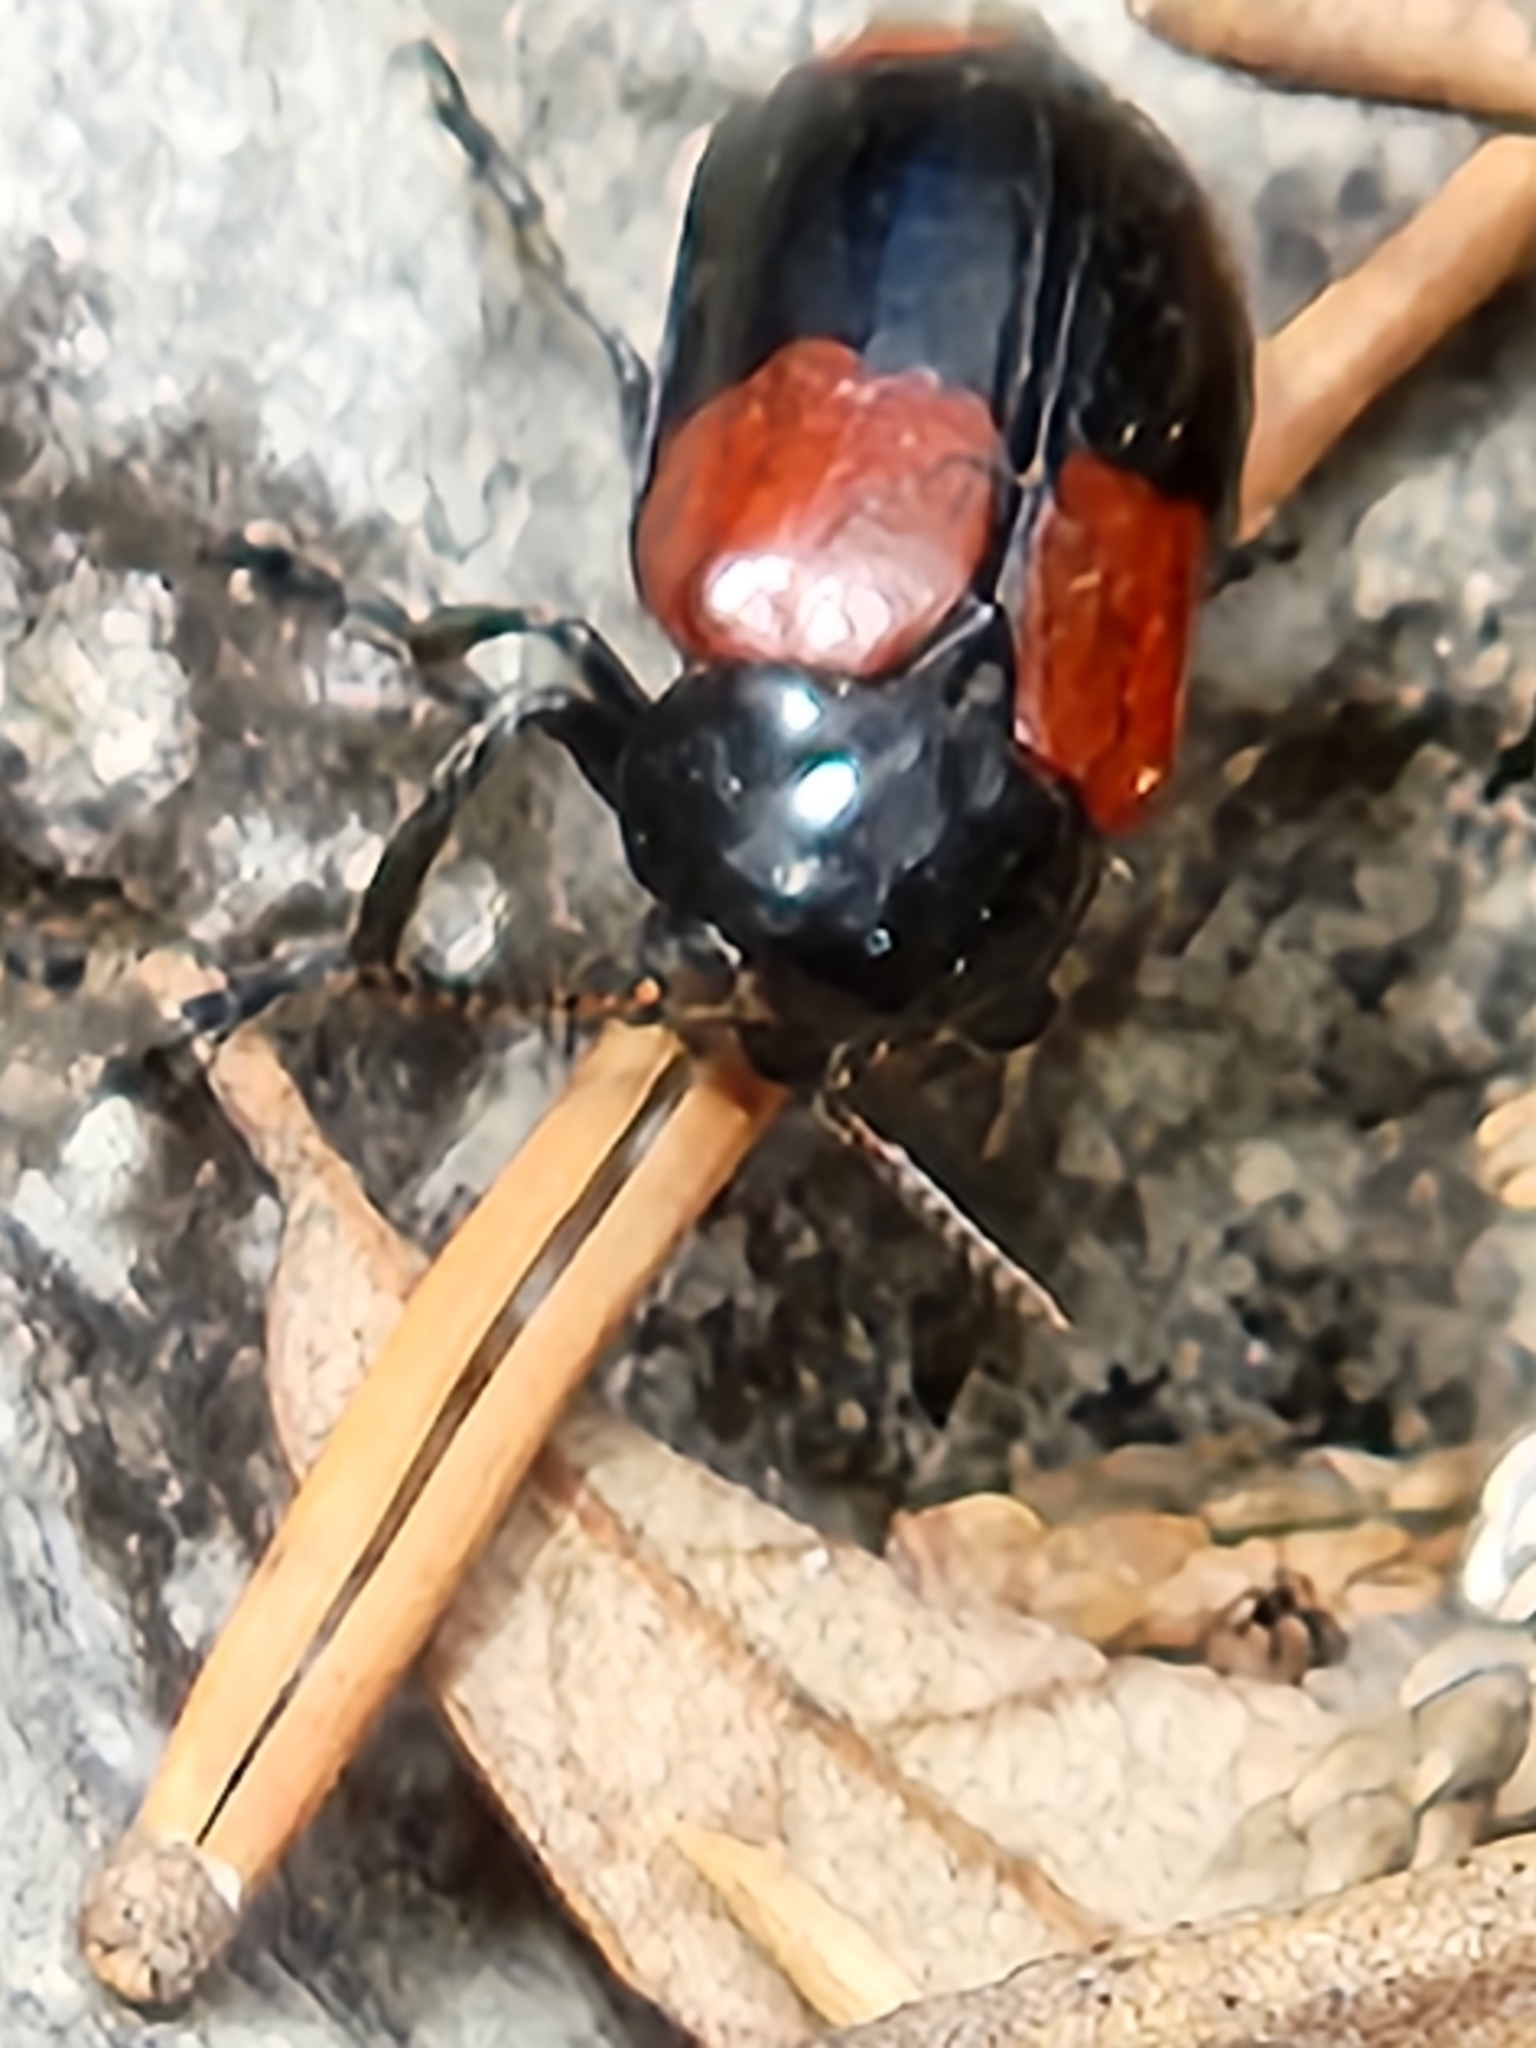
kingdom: Animalia
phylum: Arthropoda
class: Insecta
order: Coleoptera
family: Chrysomelidae
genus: Anomoea
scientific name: Anomoea rufifrons
